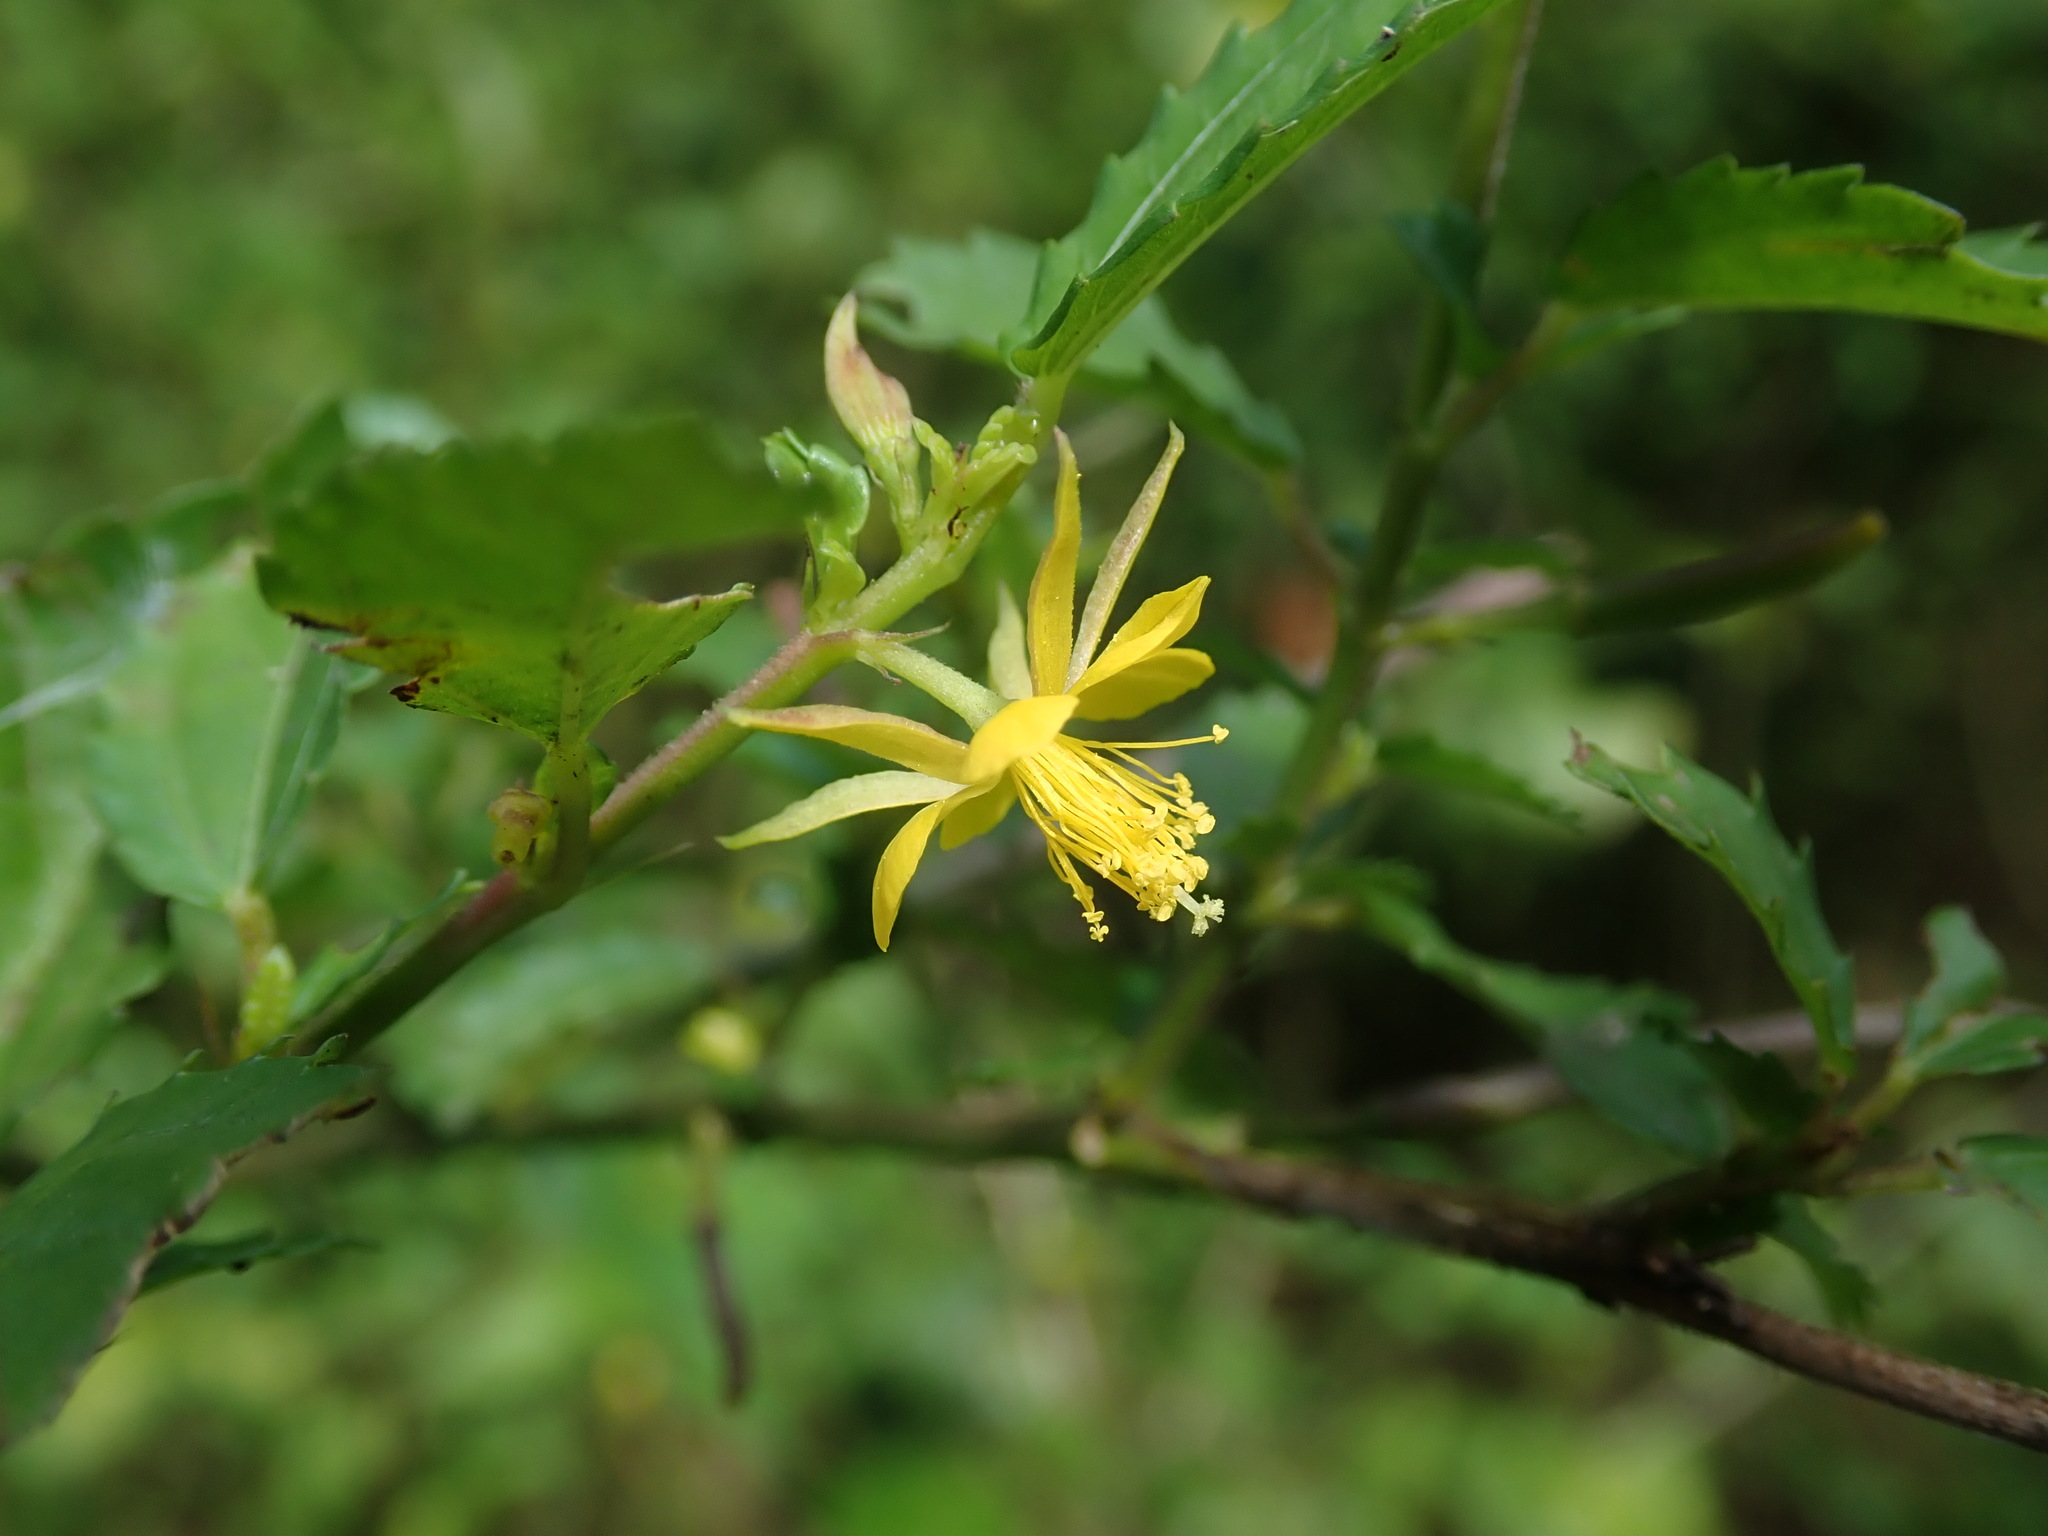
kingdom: Plantae
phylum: Tracheophyta
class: Magnoliopsida
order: Malvales
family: Malvaceae
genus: Corchorus
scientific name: Corchorus siliquosus
